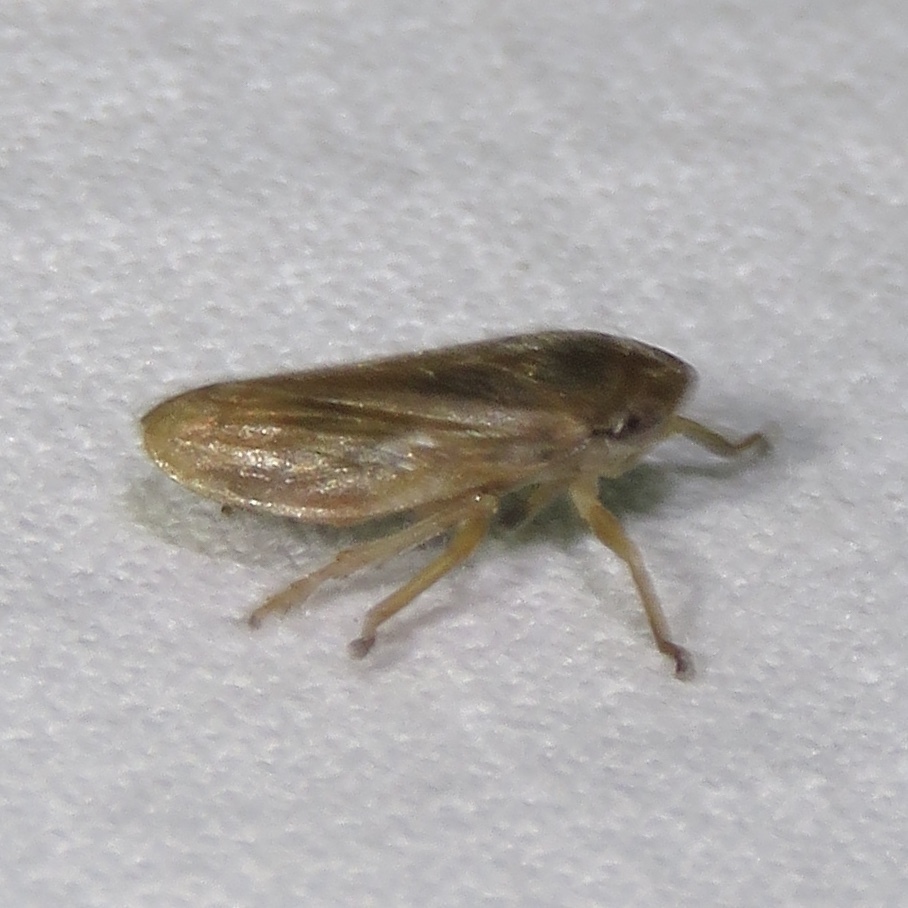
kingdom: Animalia
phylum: Arthropoda
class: Insecta
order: Hemiptera
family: Aphrophoridae
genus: Philaenus
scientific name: Philaenus spumarius
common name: Meadow spittlebug
